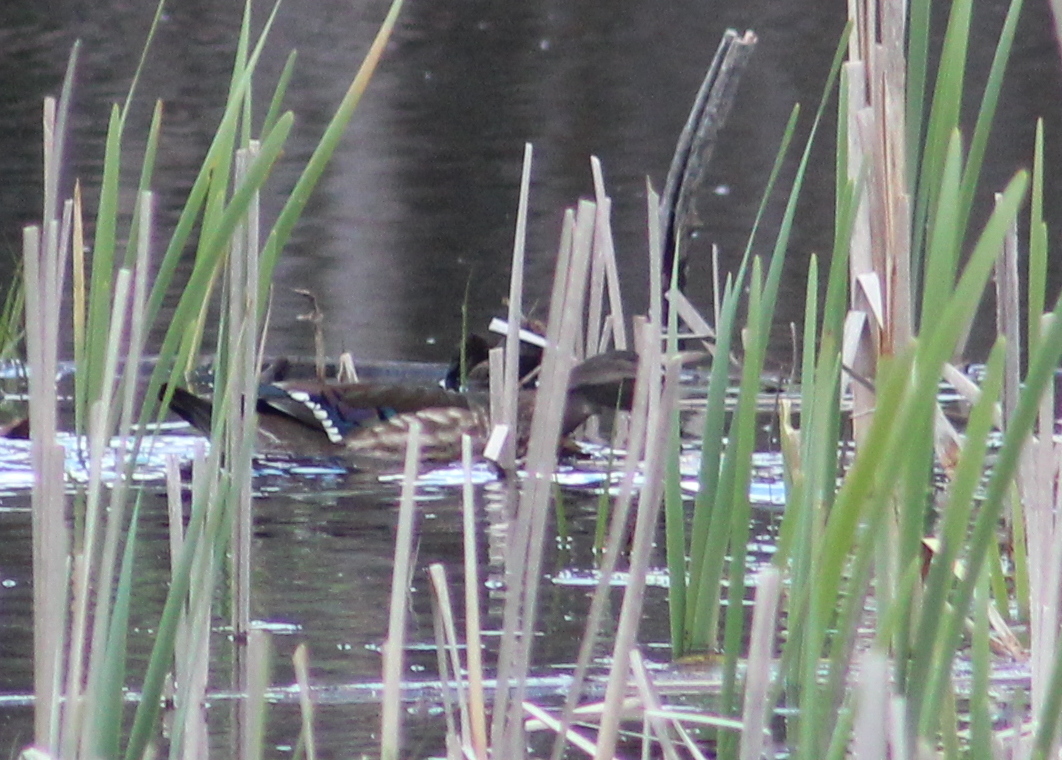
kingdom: Animalia
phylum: Chordata
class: Aves
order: Anseriformes
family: Anatidae
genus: Aix
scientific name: Aix sponsa
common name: Wood duck
